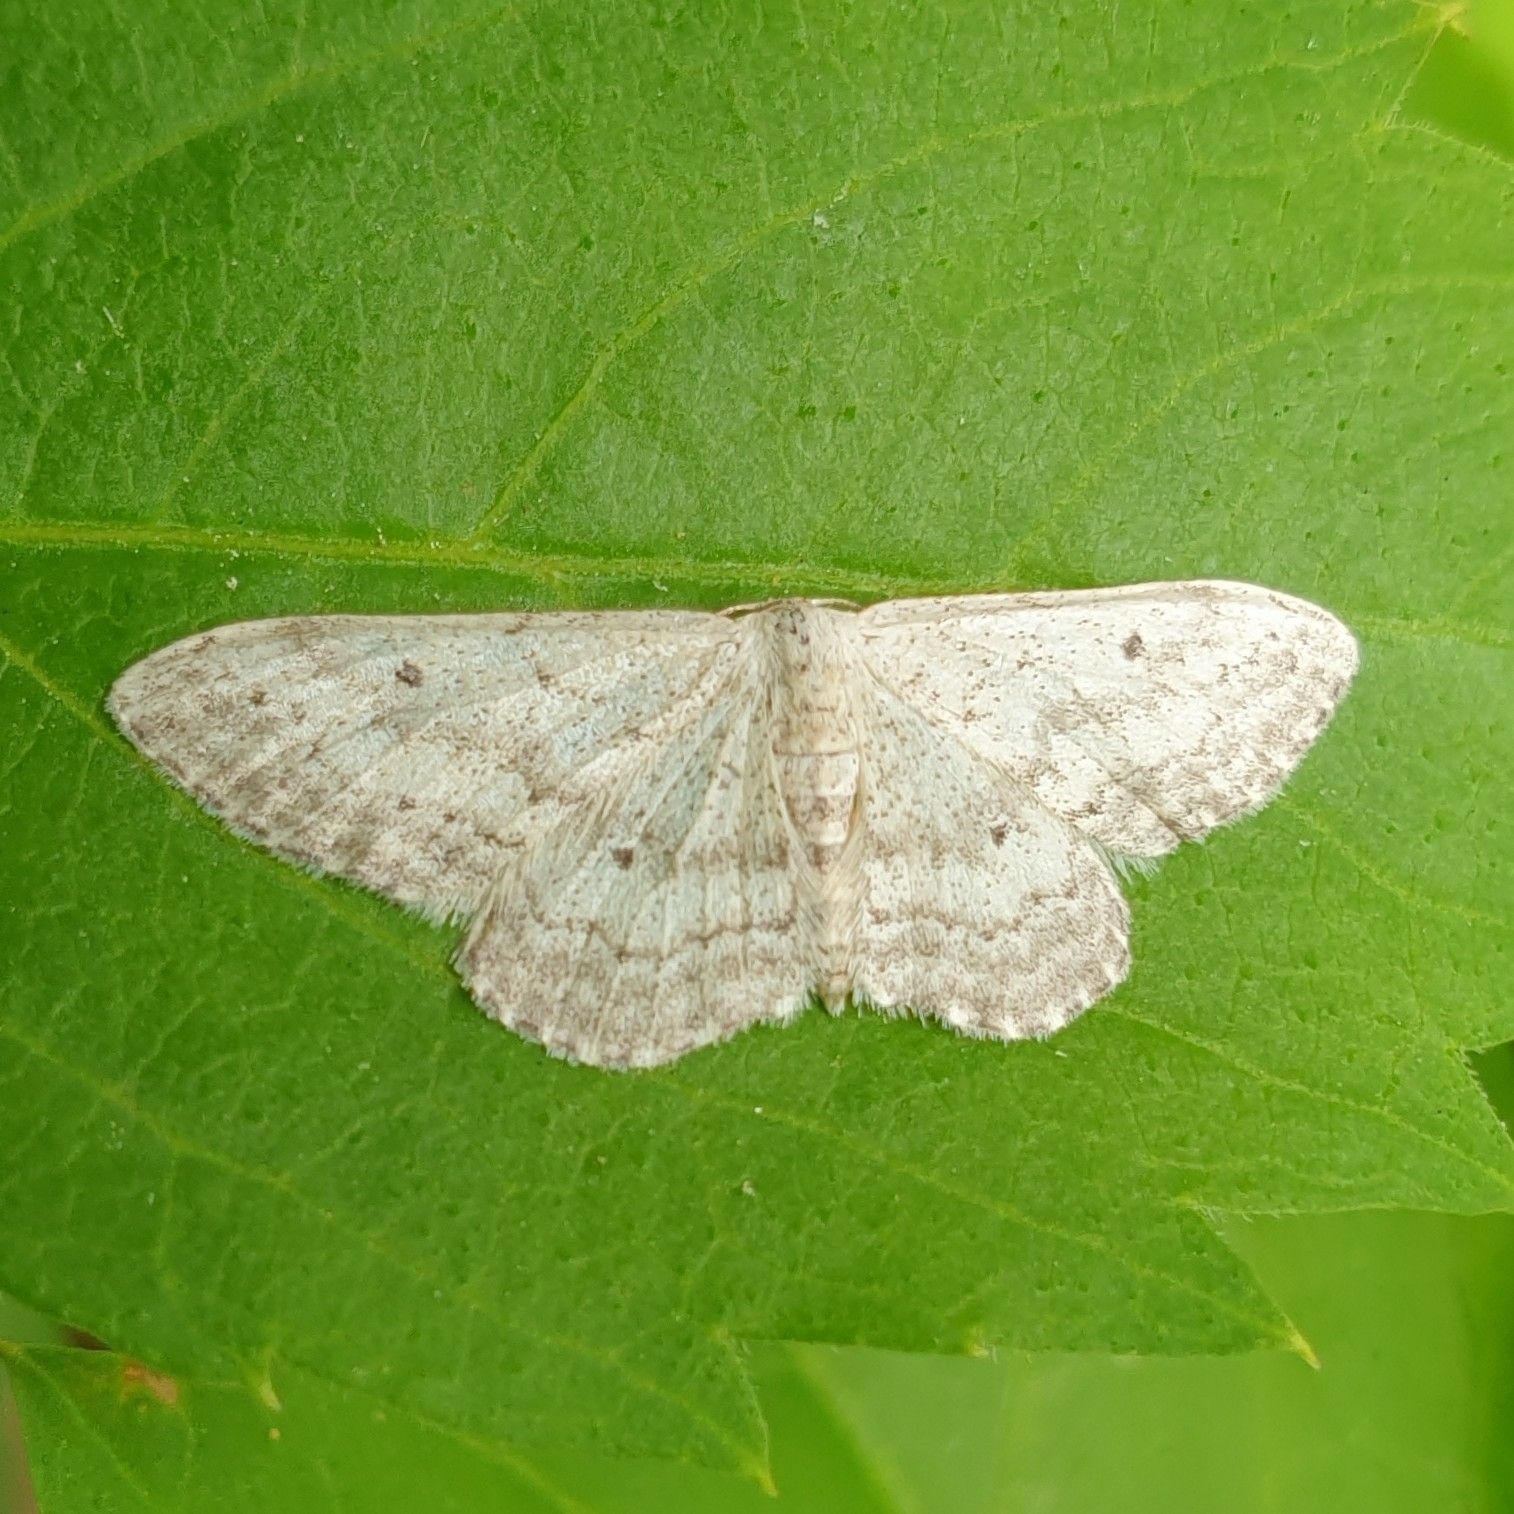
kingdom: Animalia
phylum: Arthropoda
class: Insecta
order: Lepidoptera
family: Geometridae
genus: Idaea
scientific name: Idaea seriata
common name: Small dusty wave
